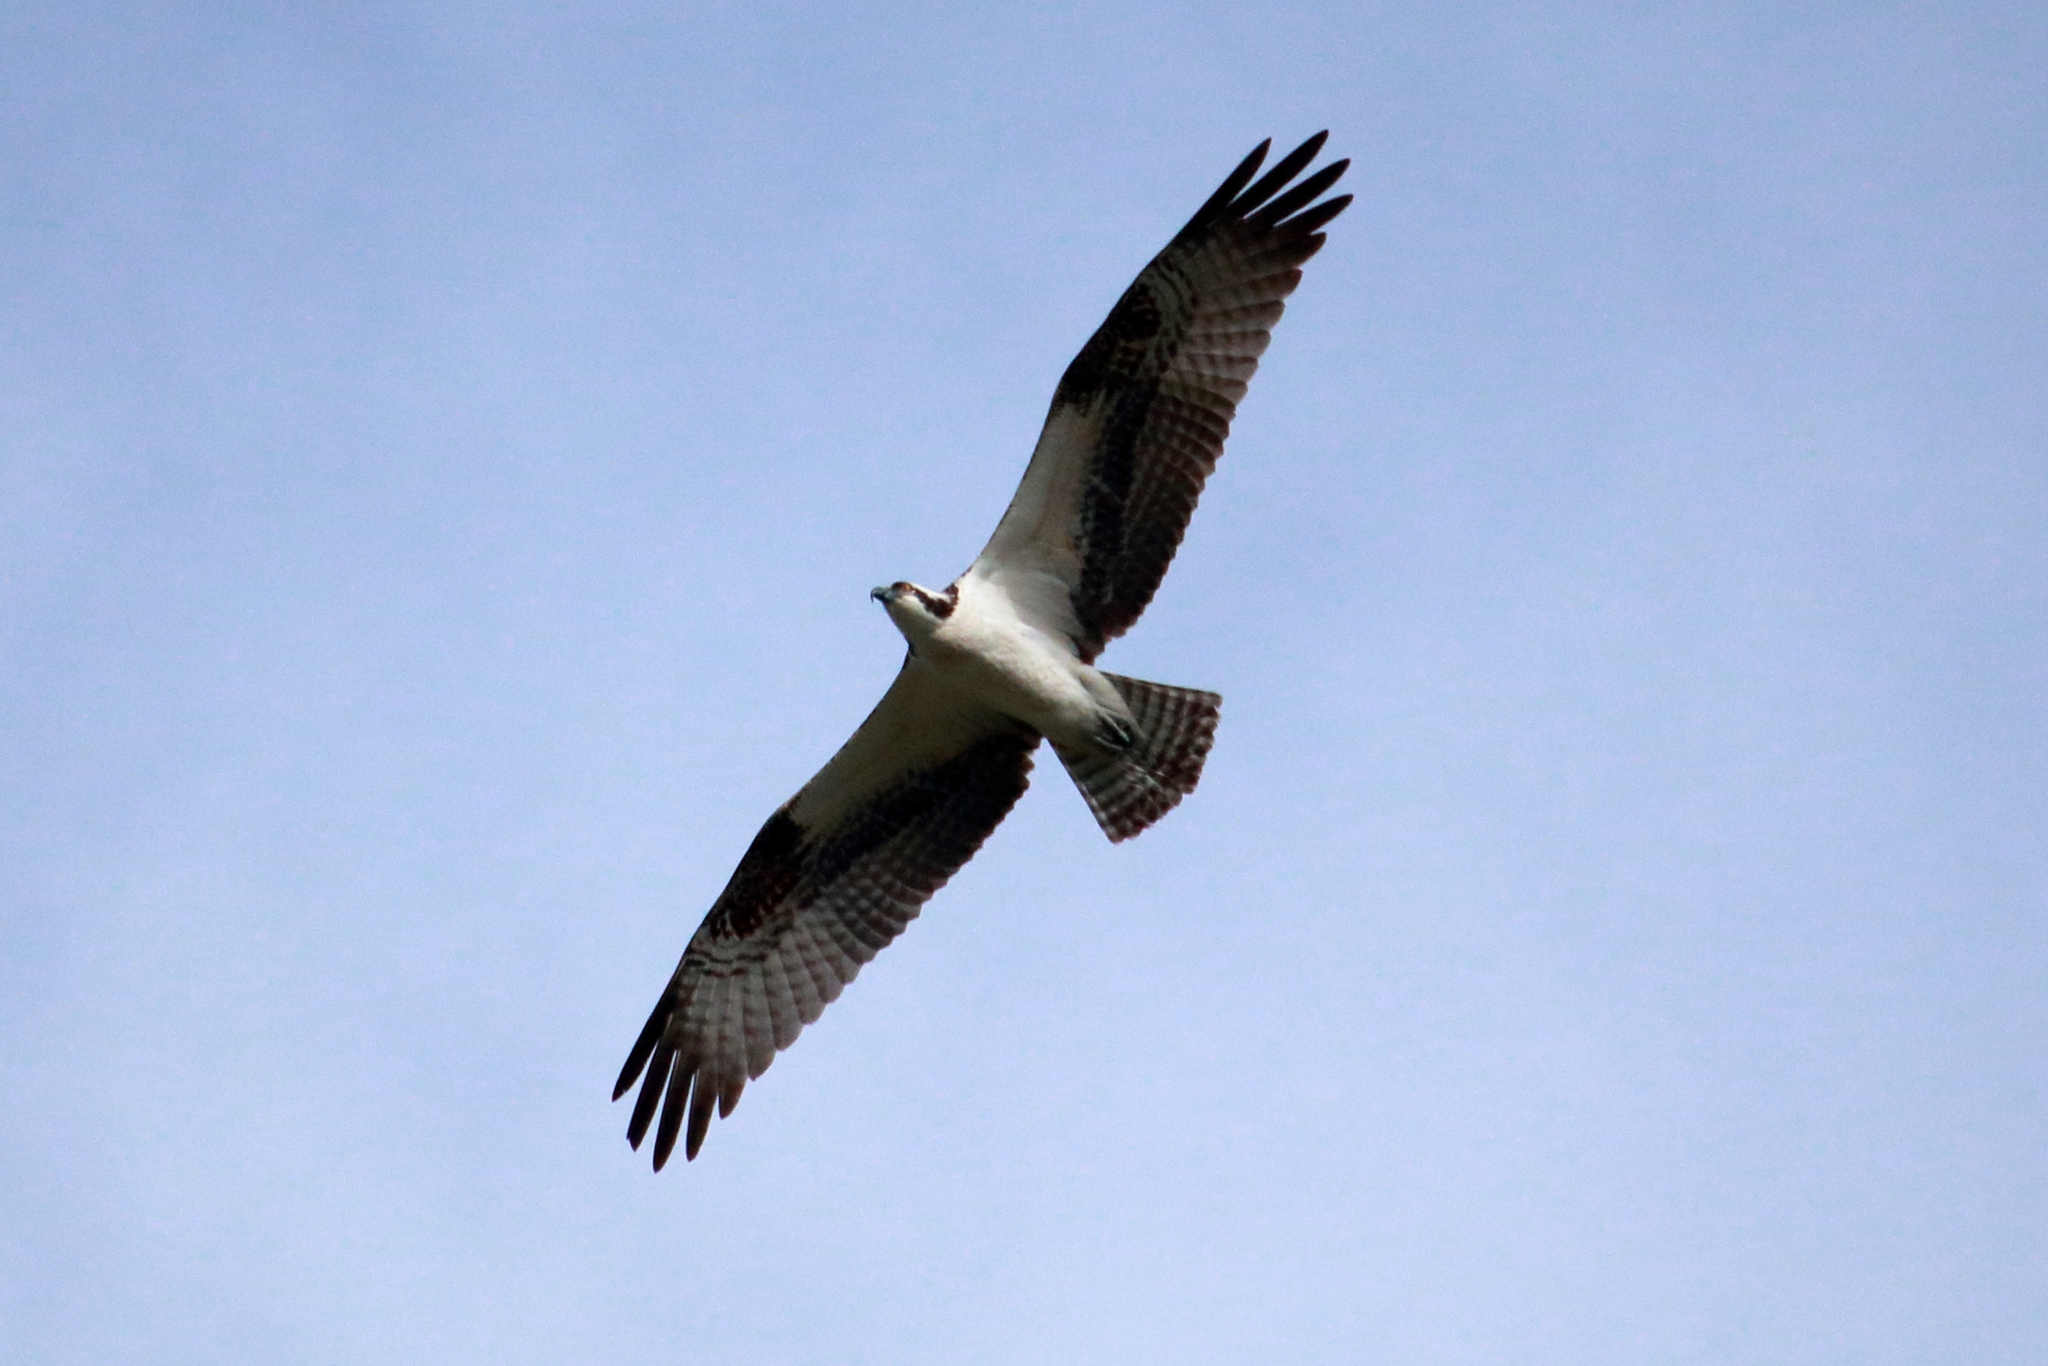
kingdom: Animalia
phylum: Chordata
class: Aves
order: Accipitriformes
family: Pandionidae
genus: Pandion
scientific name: Pandion haliaetus
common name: Osprey
